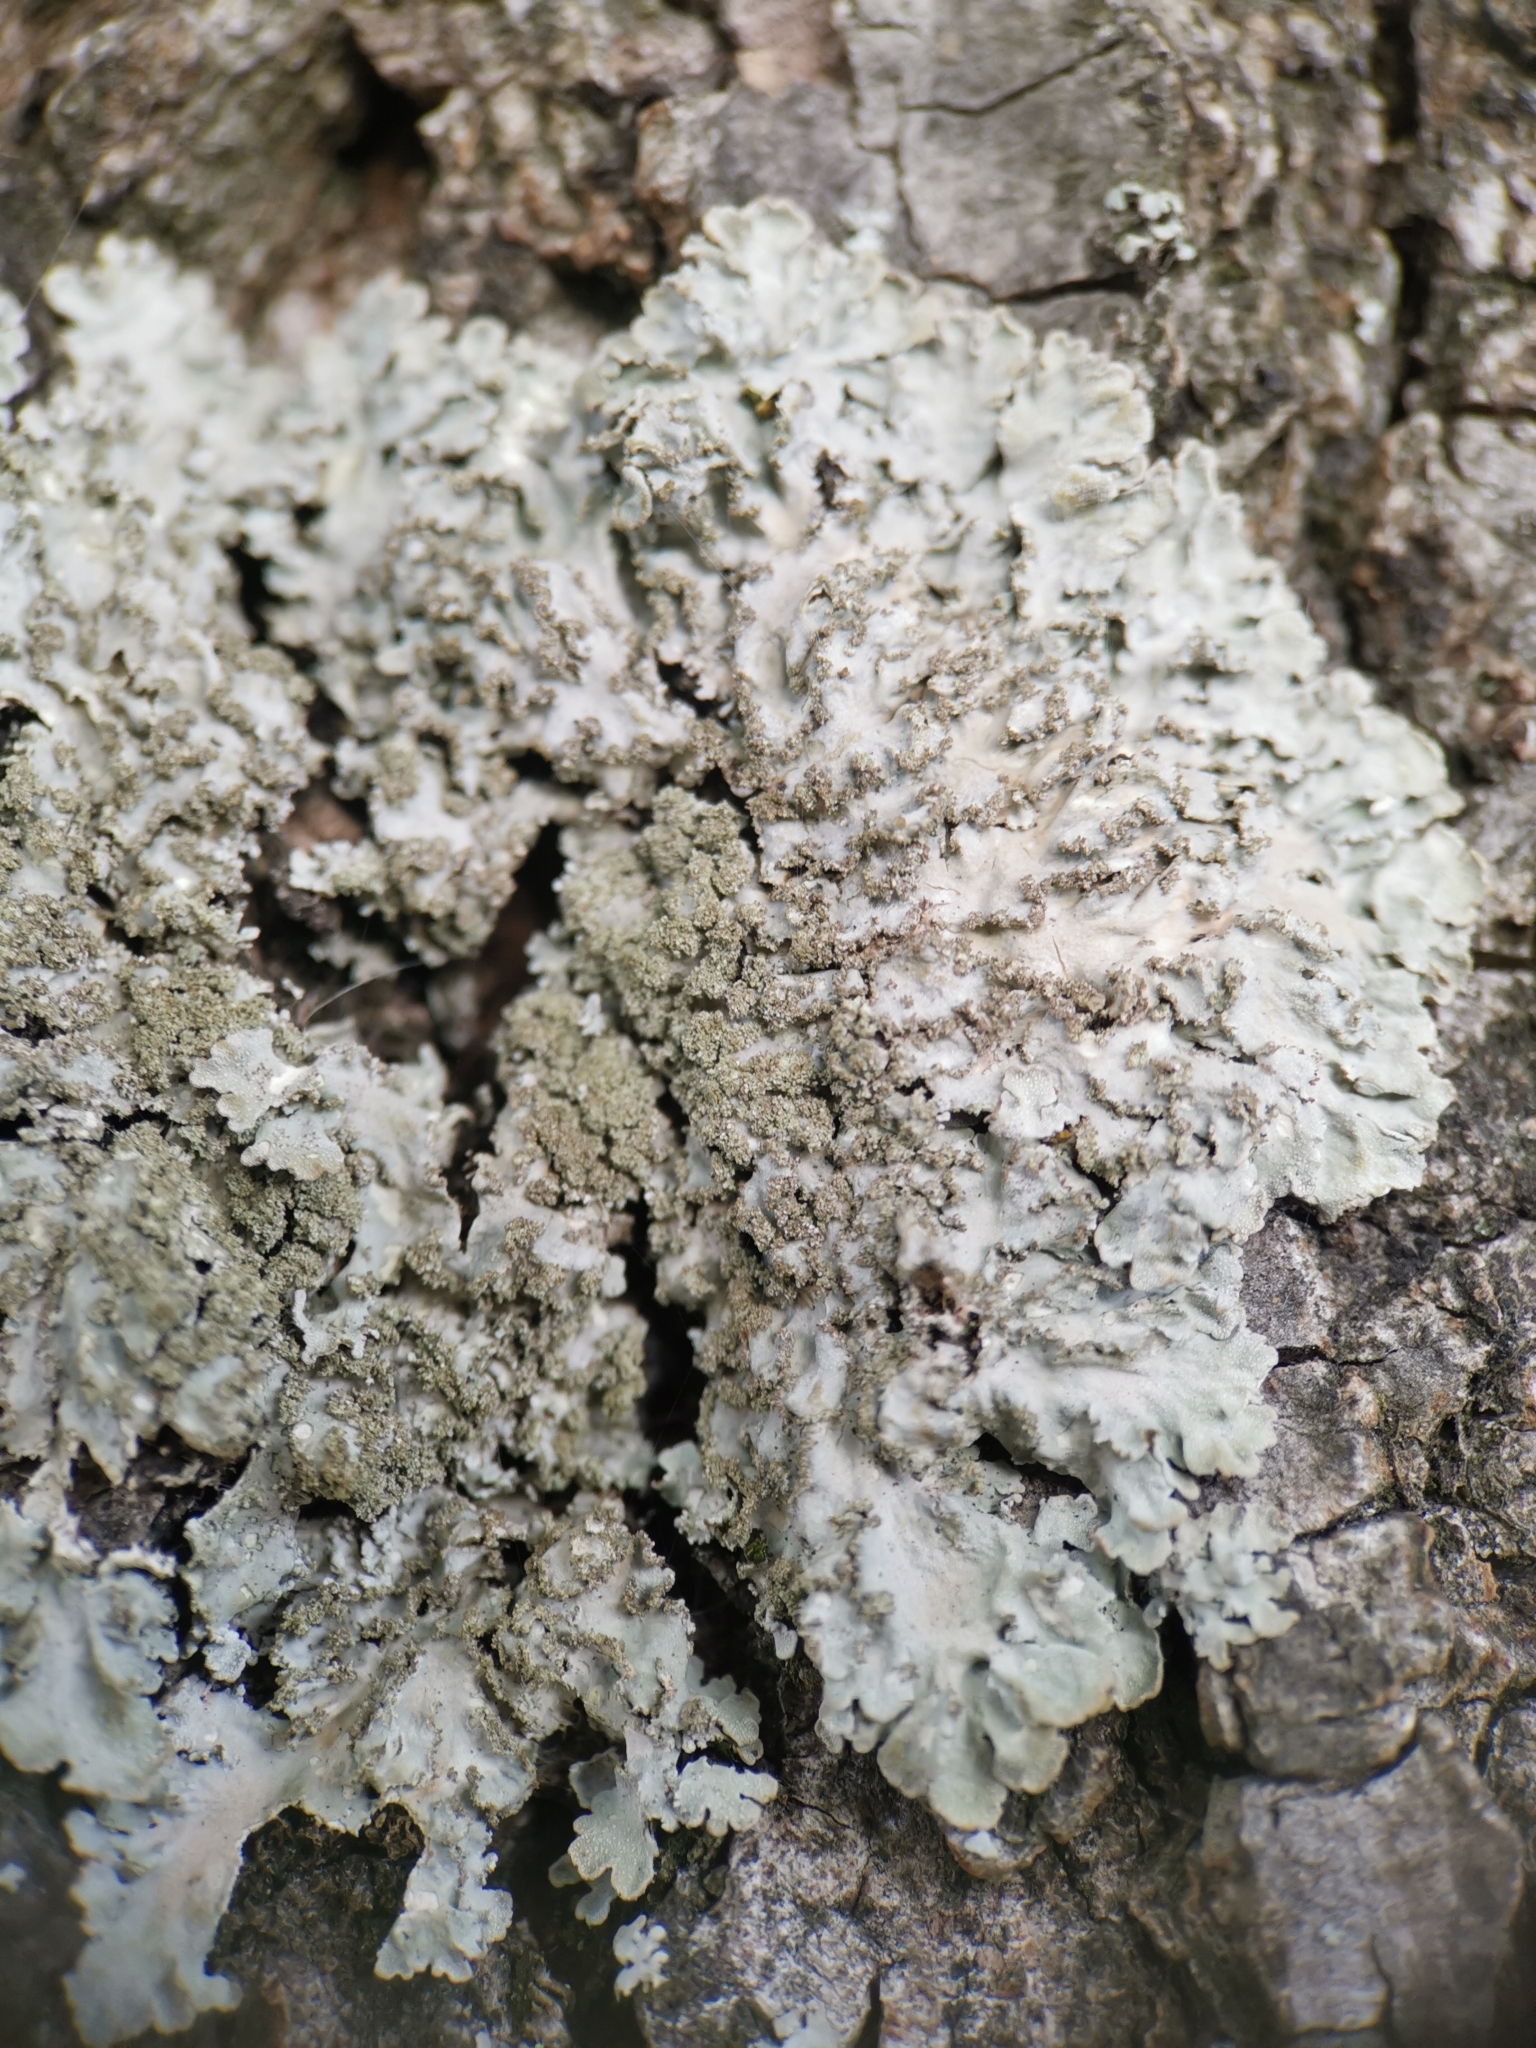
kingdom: Fungi
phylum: Ascomycota
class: Lecanoromycetes
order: Caliciales
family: Physciaceae
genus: Poeltonia
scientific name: Poeltonia grisea
